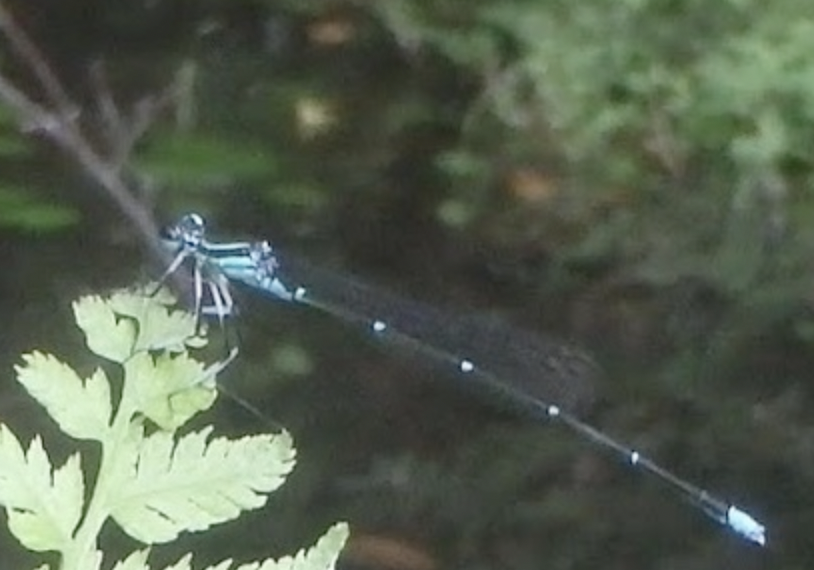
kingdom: Animalia
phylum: Arthropoda
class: Insecta
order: Odonata
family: Platycnemididae
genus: Pseudocopera
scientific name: Pseudocopera annulata
